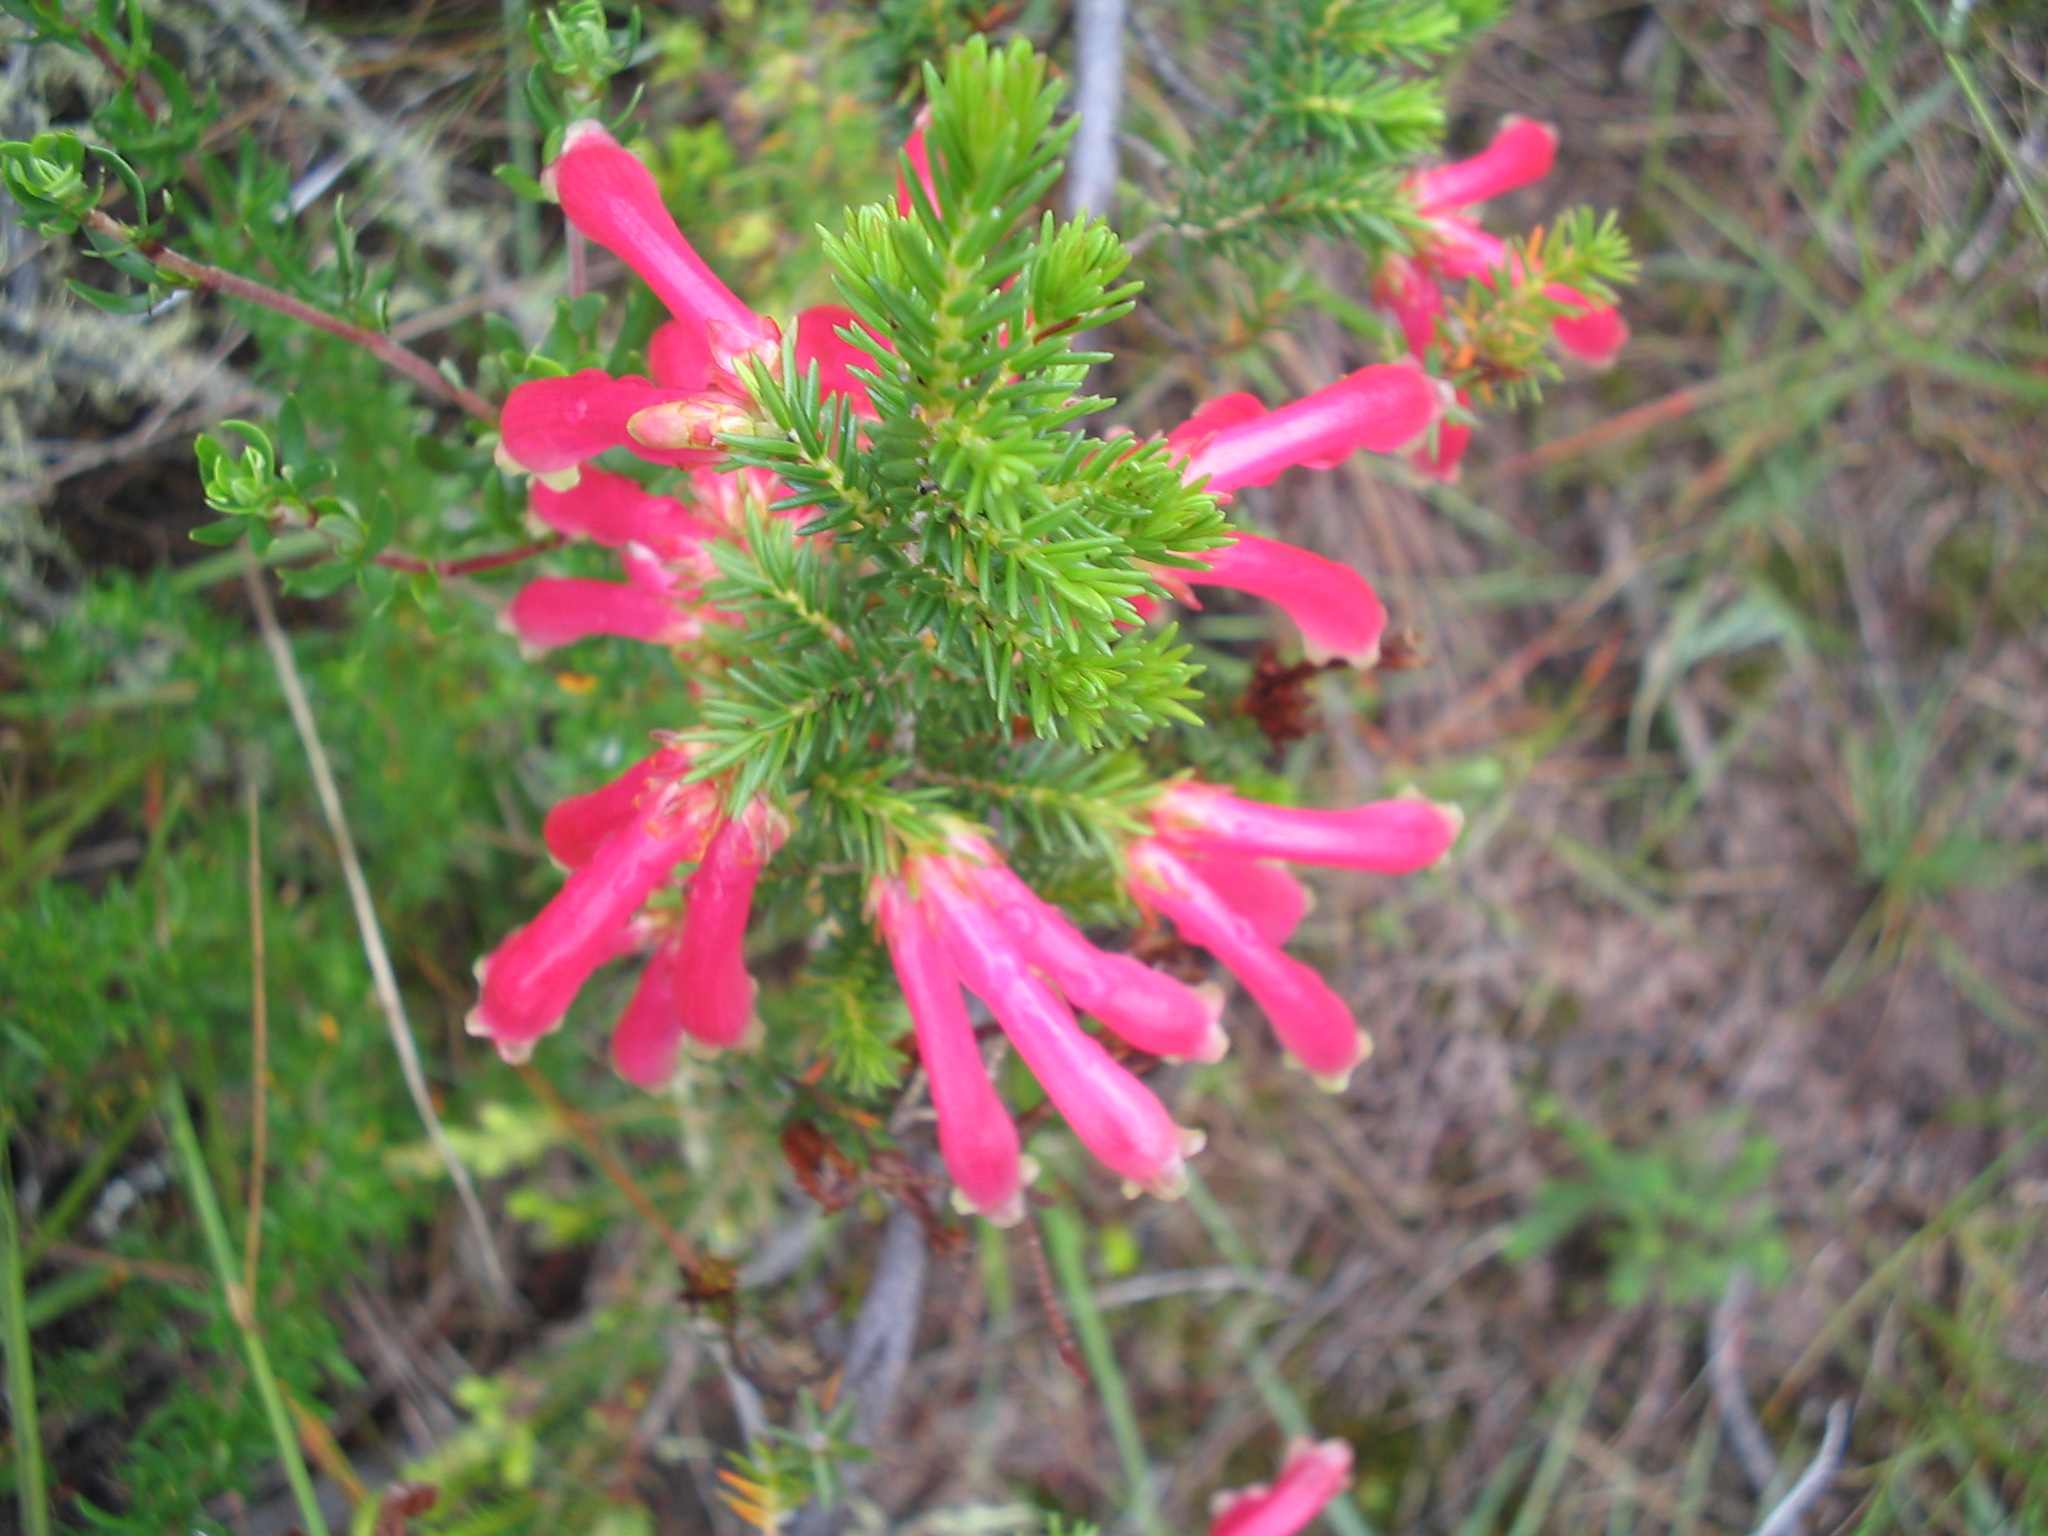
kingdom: Plantae
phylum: Tracheophyta
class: Magnoliopsida
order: Ericales
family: Ericaceae
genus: Erica
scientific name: Erica discolor
